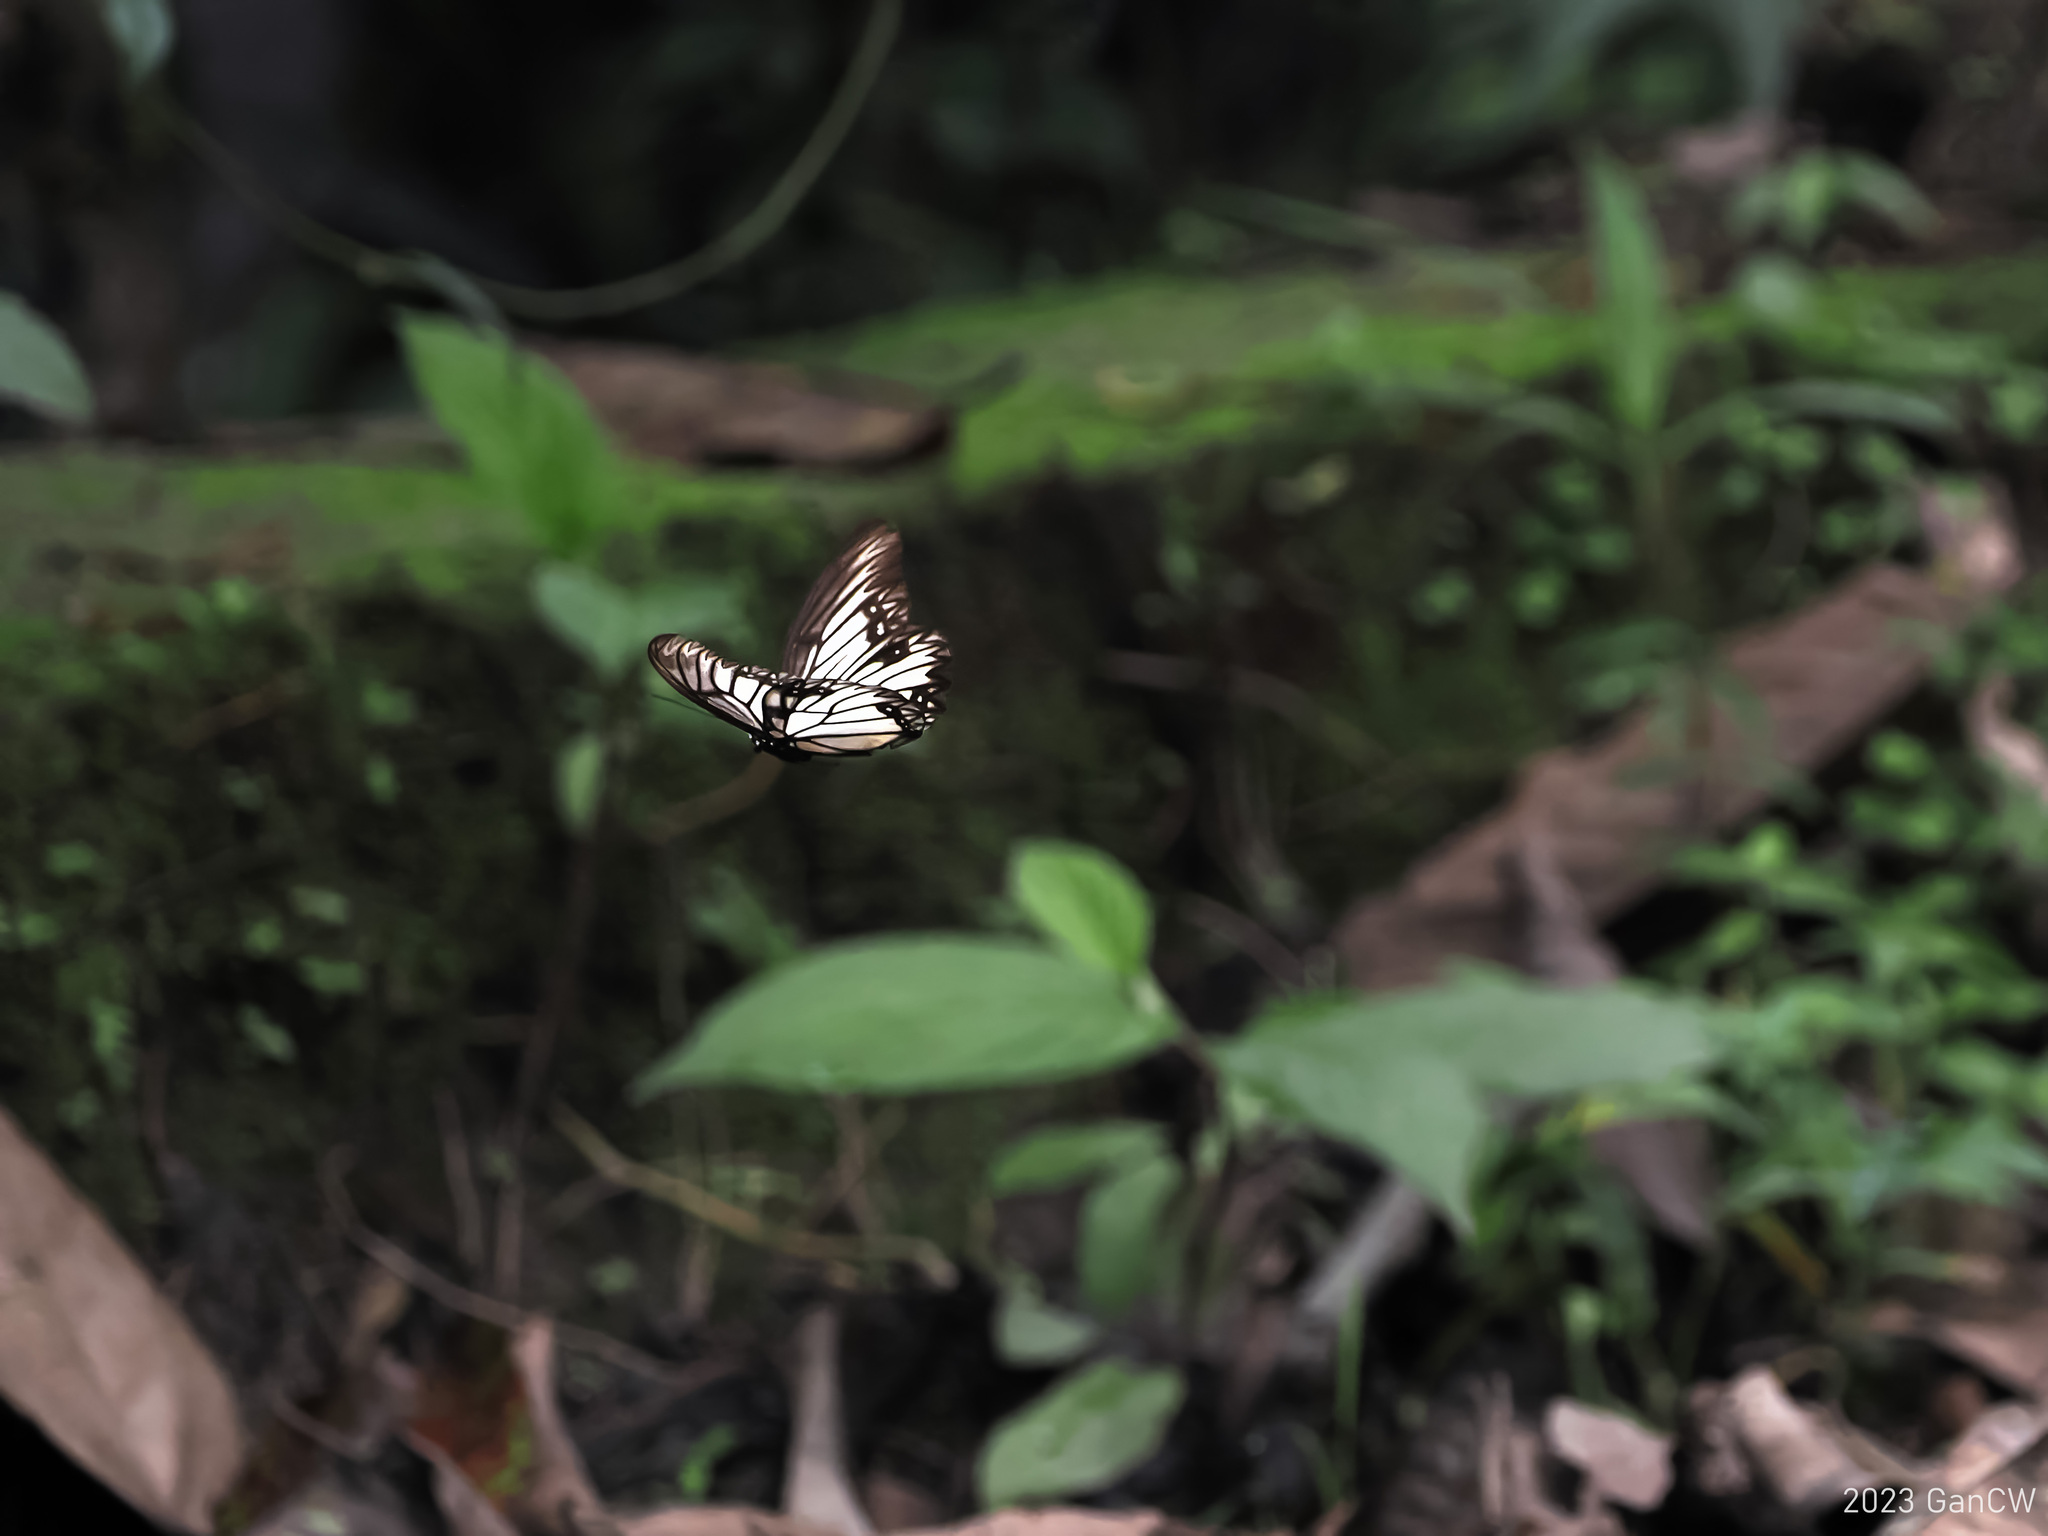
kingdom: Animalia
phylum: Arthropoda
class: Insecta
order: Lepidoptera
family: Nymphalidae
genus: Zethera
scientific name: Zethera incerta
